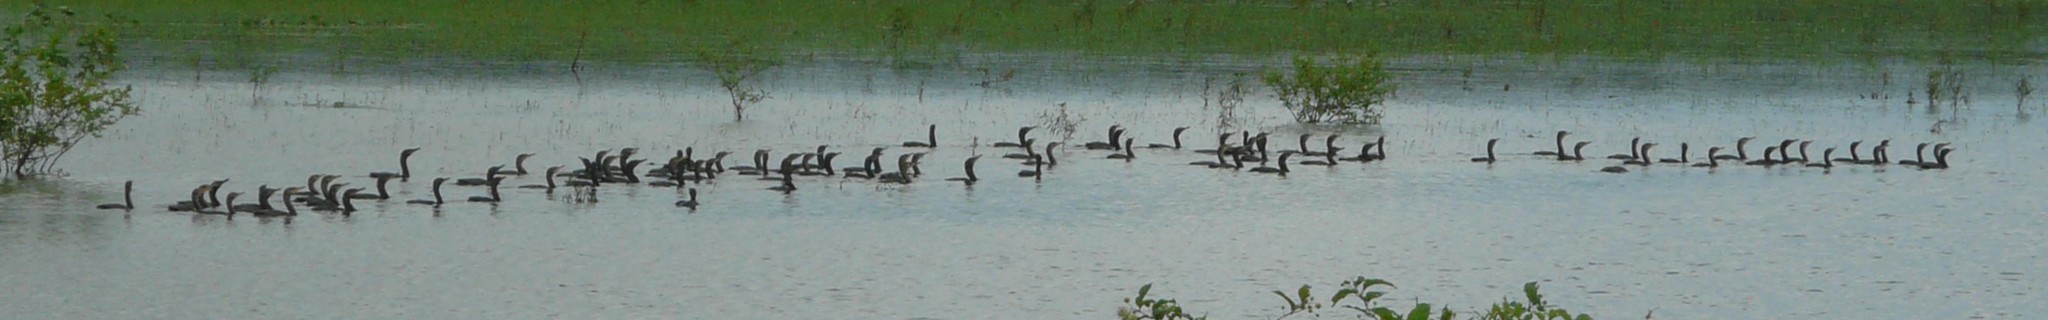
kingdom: Animalia
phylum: Chordata
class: Aves
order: Suliformes
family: Phalacrocoracidae
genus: Phalacrocorax
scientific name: Phalacrocorax brasilianus
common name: Neotropic cormorant
